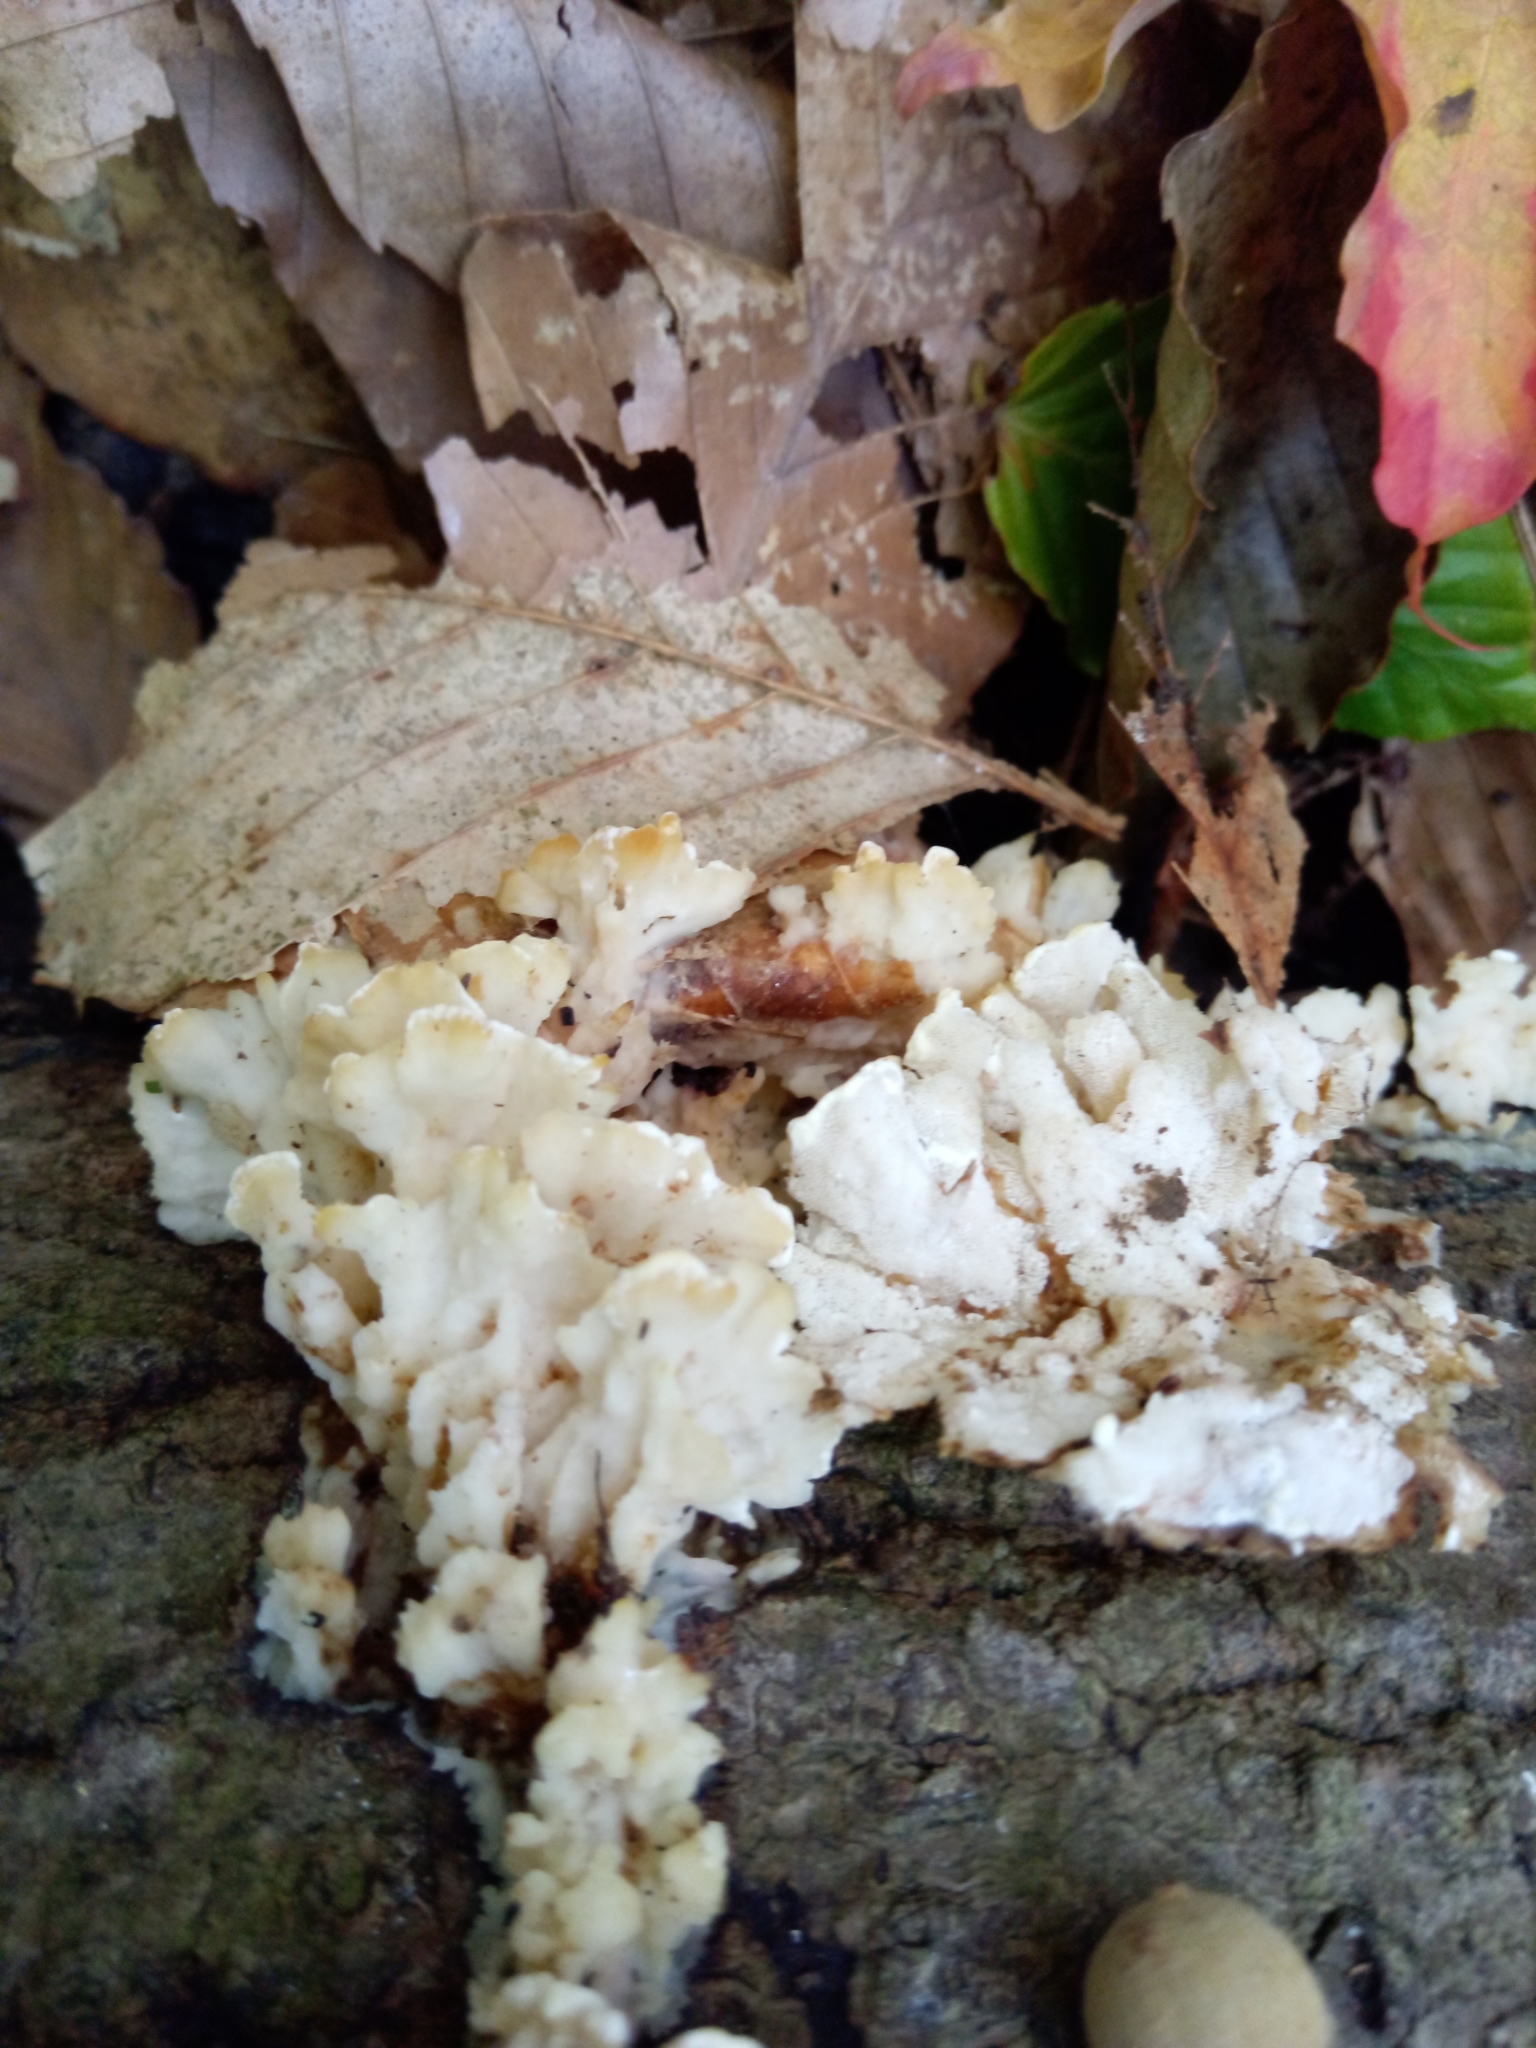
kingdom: Fungi
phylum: Basidiomycota
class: Agaricomycetes
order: Polyporales
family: Steccherinaceae
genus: Antrodiella
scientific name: Antrodiella semisupina
